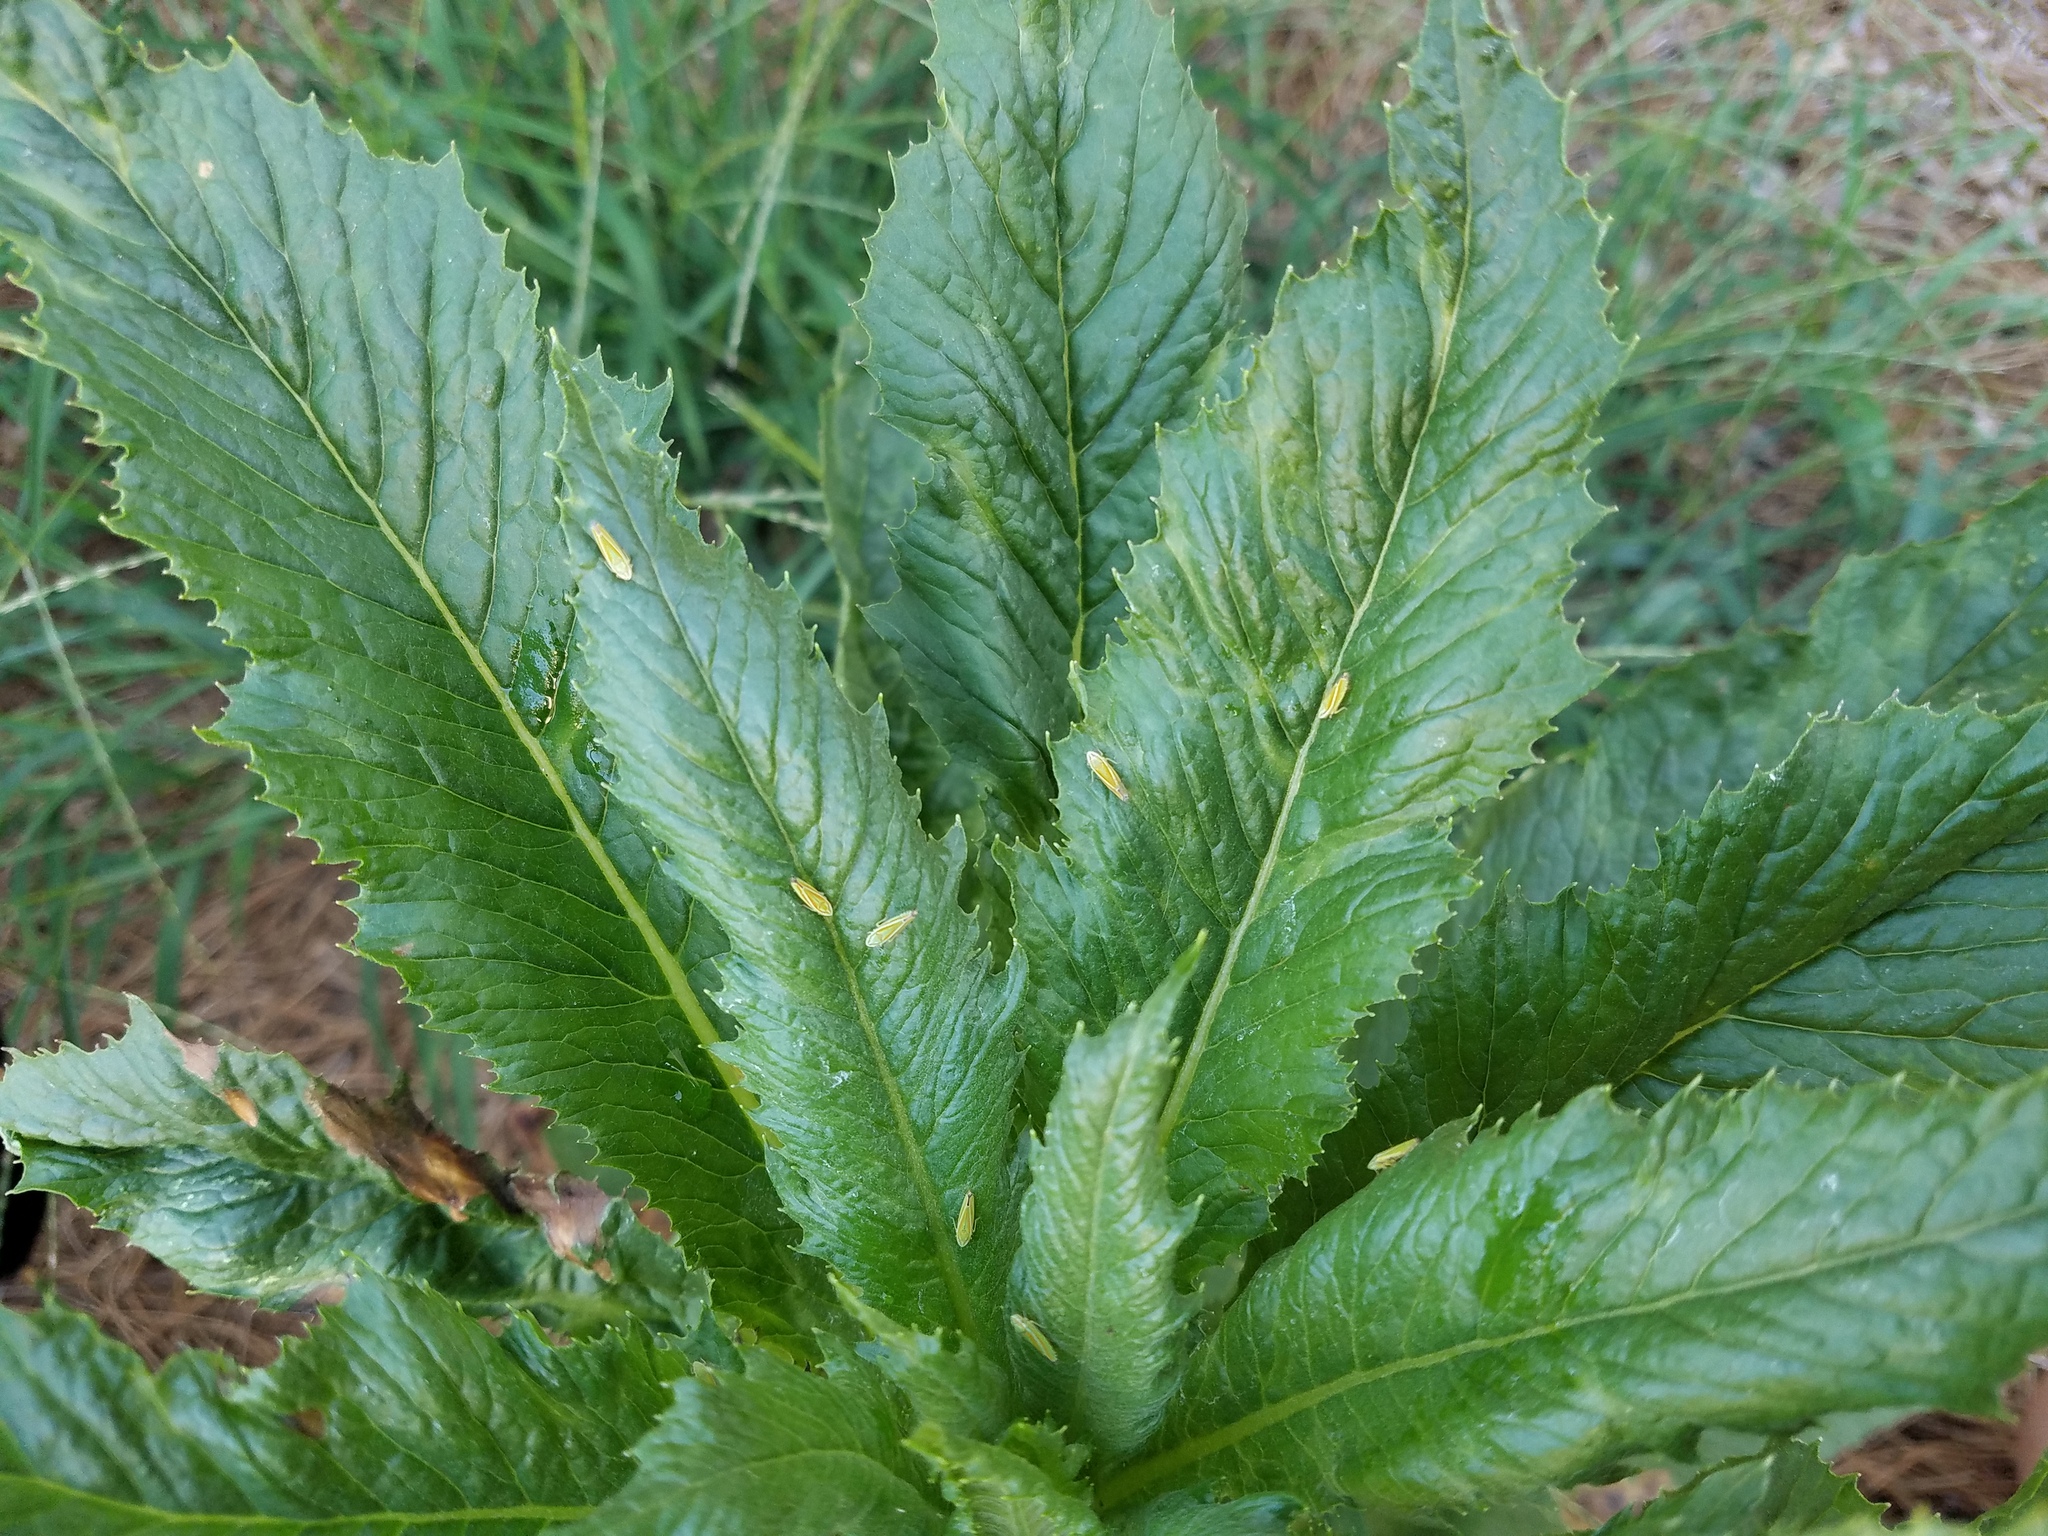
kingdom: Animalia
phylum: Arthropoda
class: Insecta
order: Hemiptera
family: Cicadellidae
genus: Graphocephala
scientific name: Graphocephala versuta
